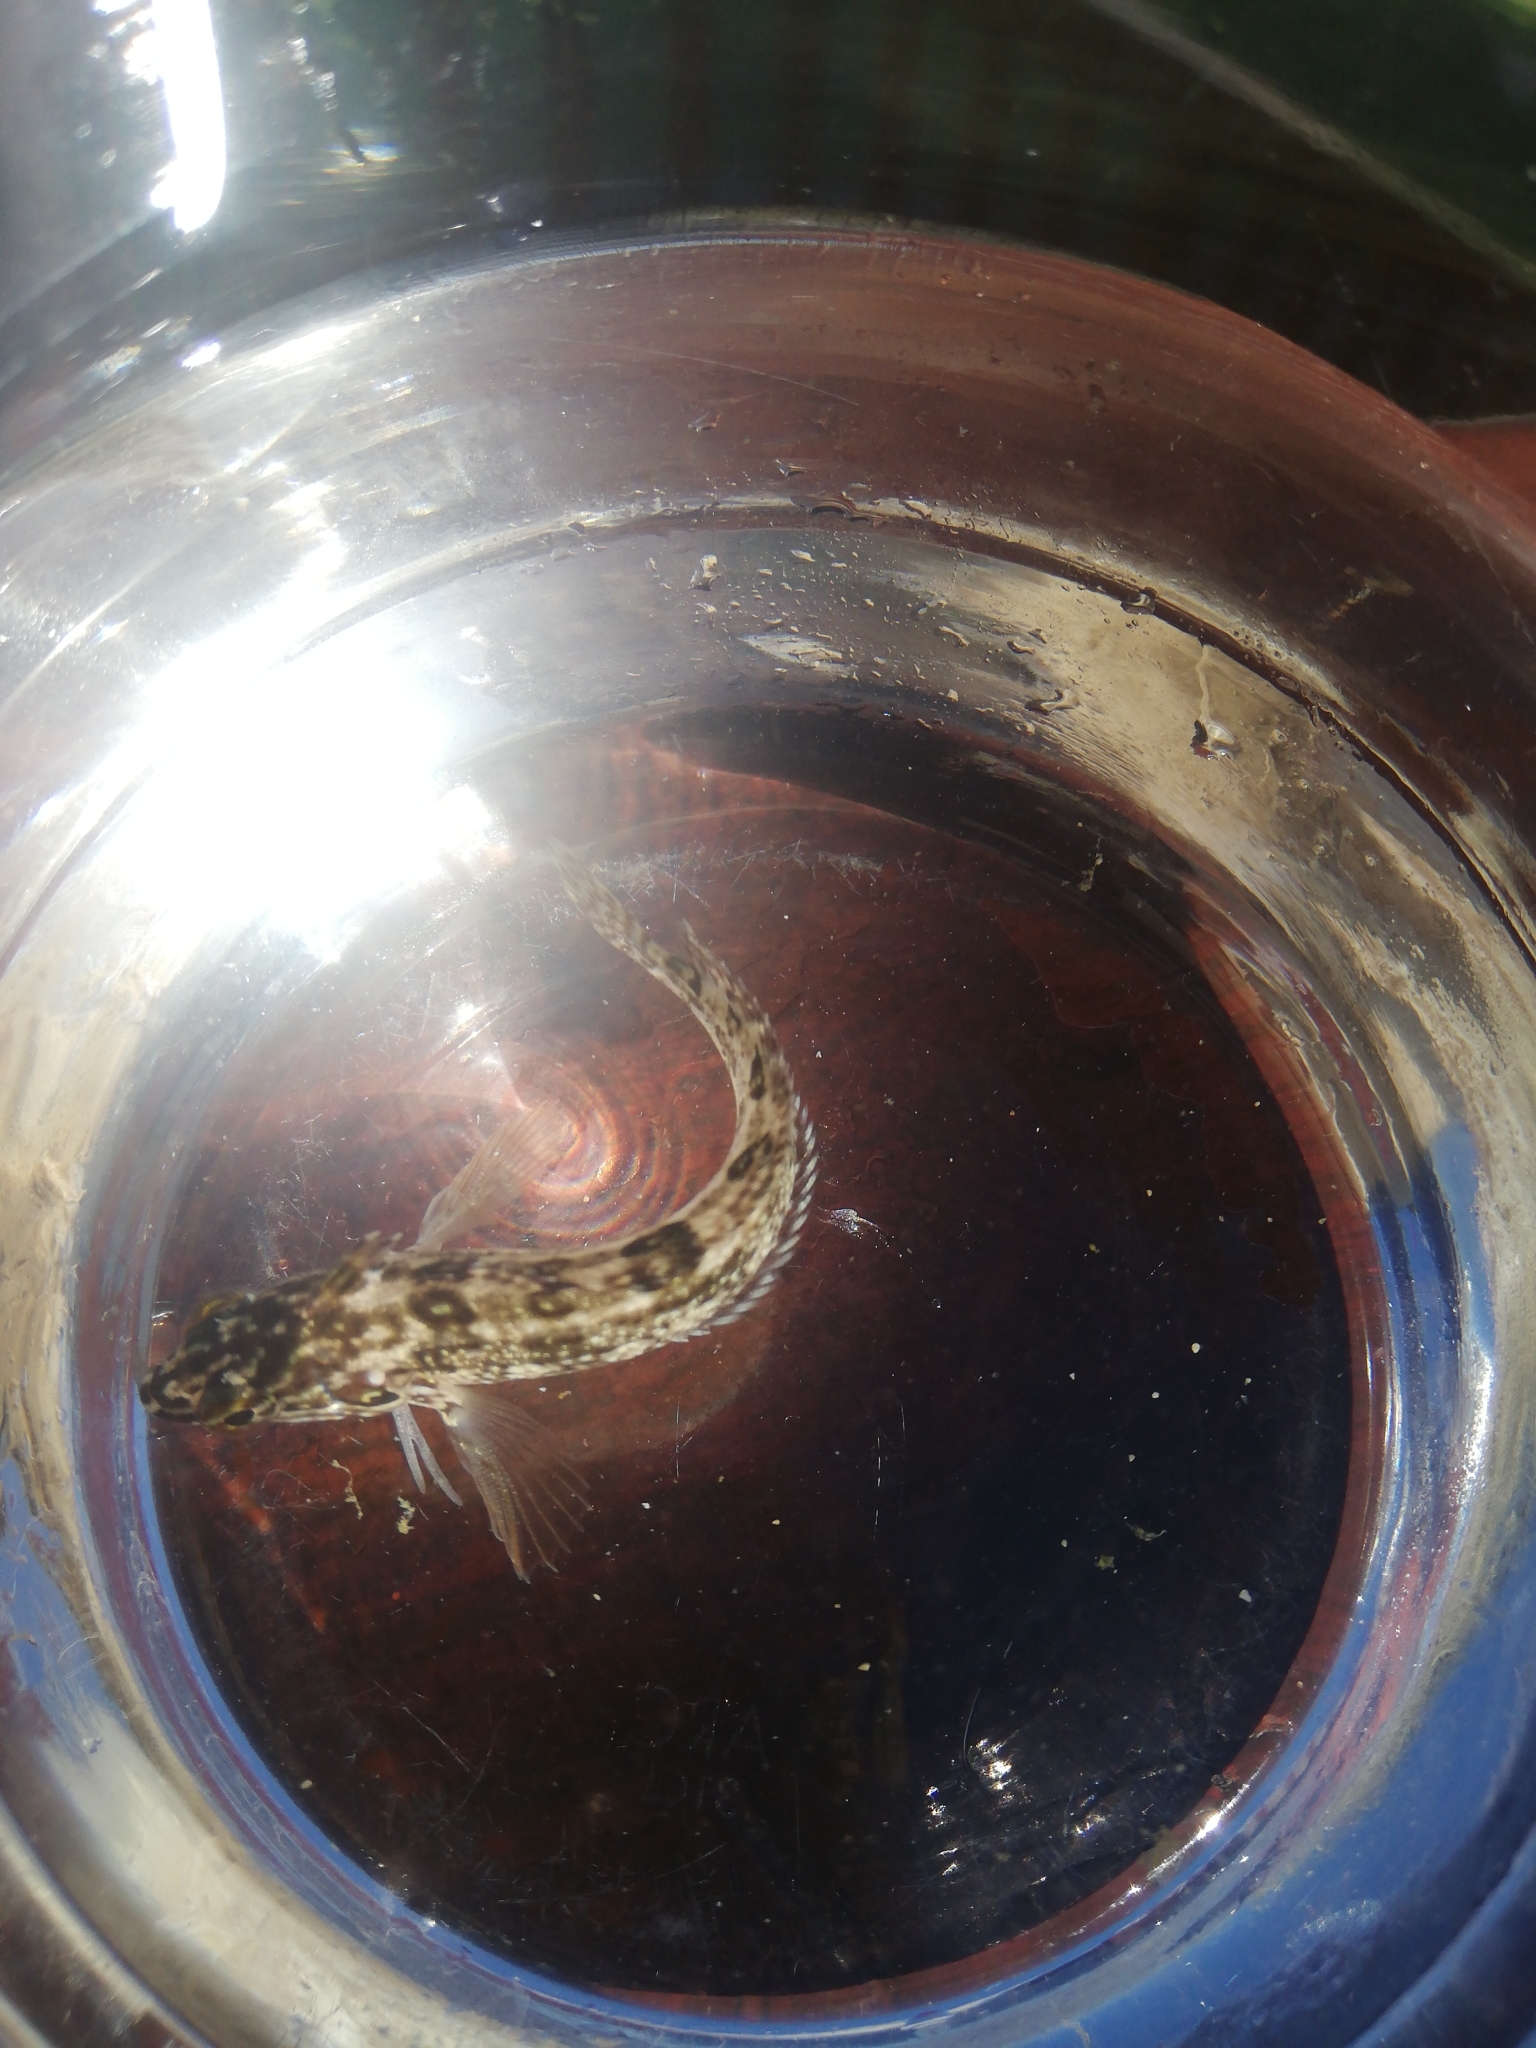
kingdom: Animalia
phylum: Chordata
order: Perciformes
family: Clinidae
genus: Clinus
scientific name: Clinus superciliosus
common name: Super klipfish
